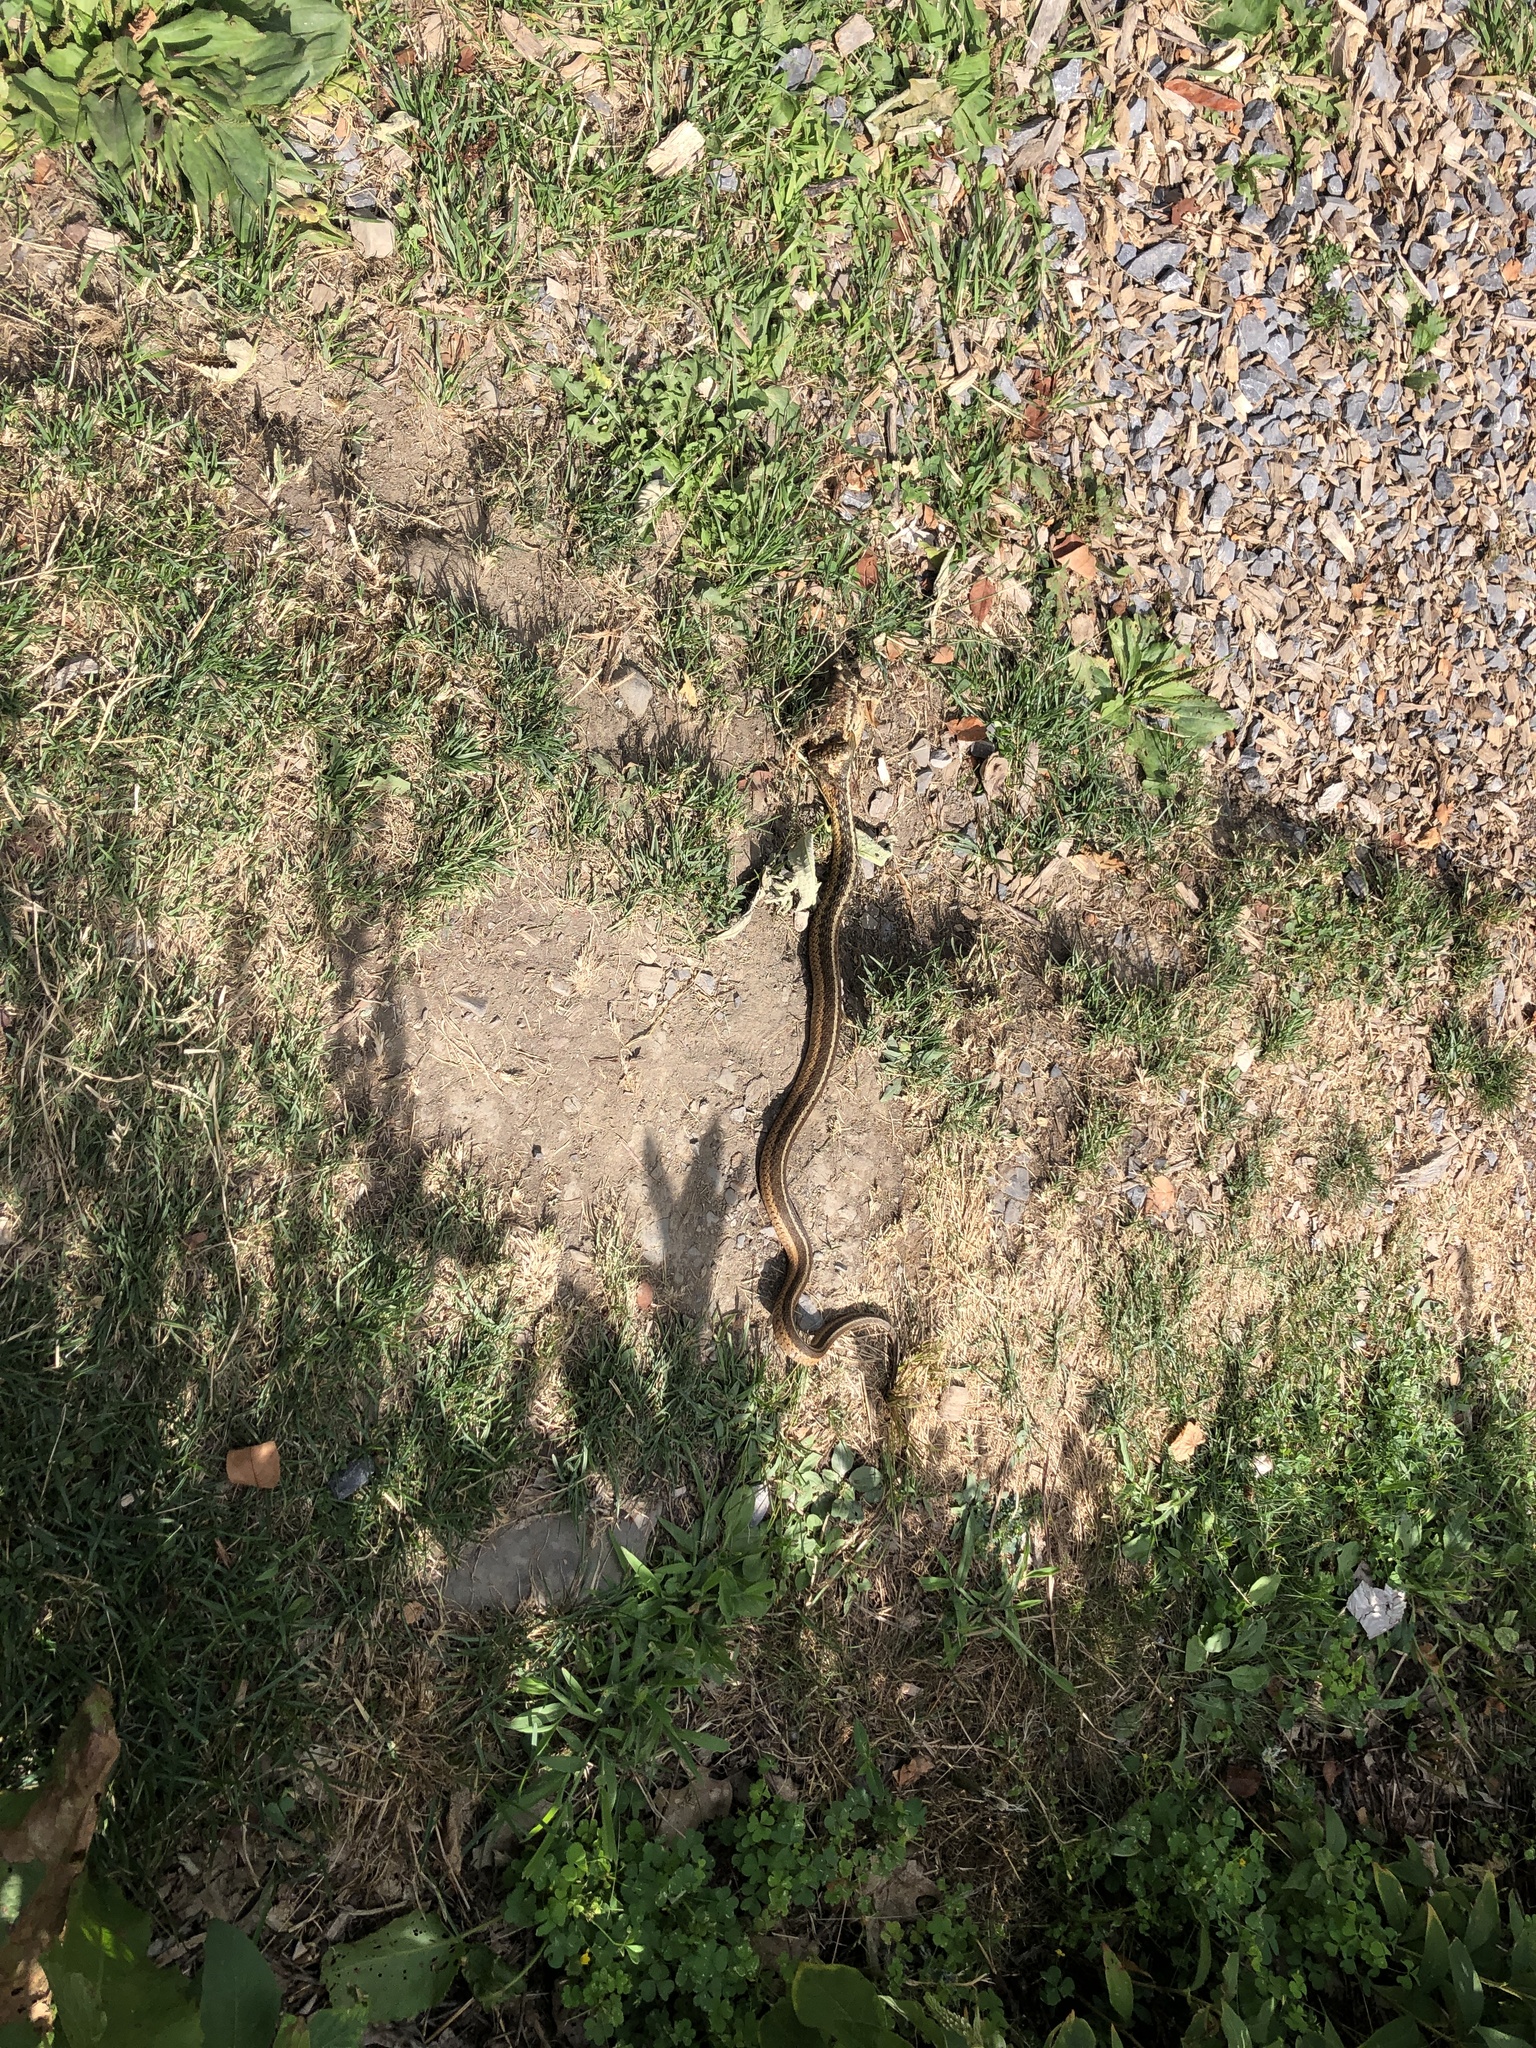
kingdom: Animalia
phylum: Chordata
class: Squamata
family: Colubridae
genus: Thamnophis
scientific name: Thamnophis sirtalis
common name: Common garter snake
